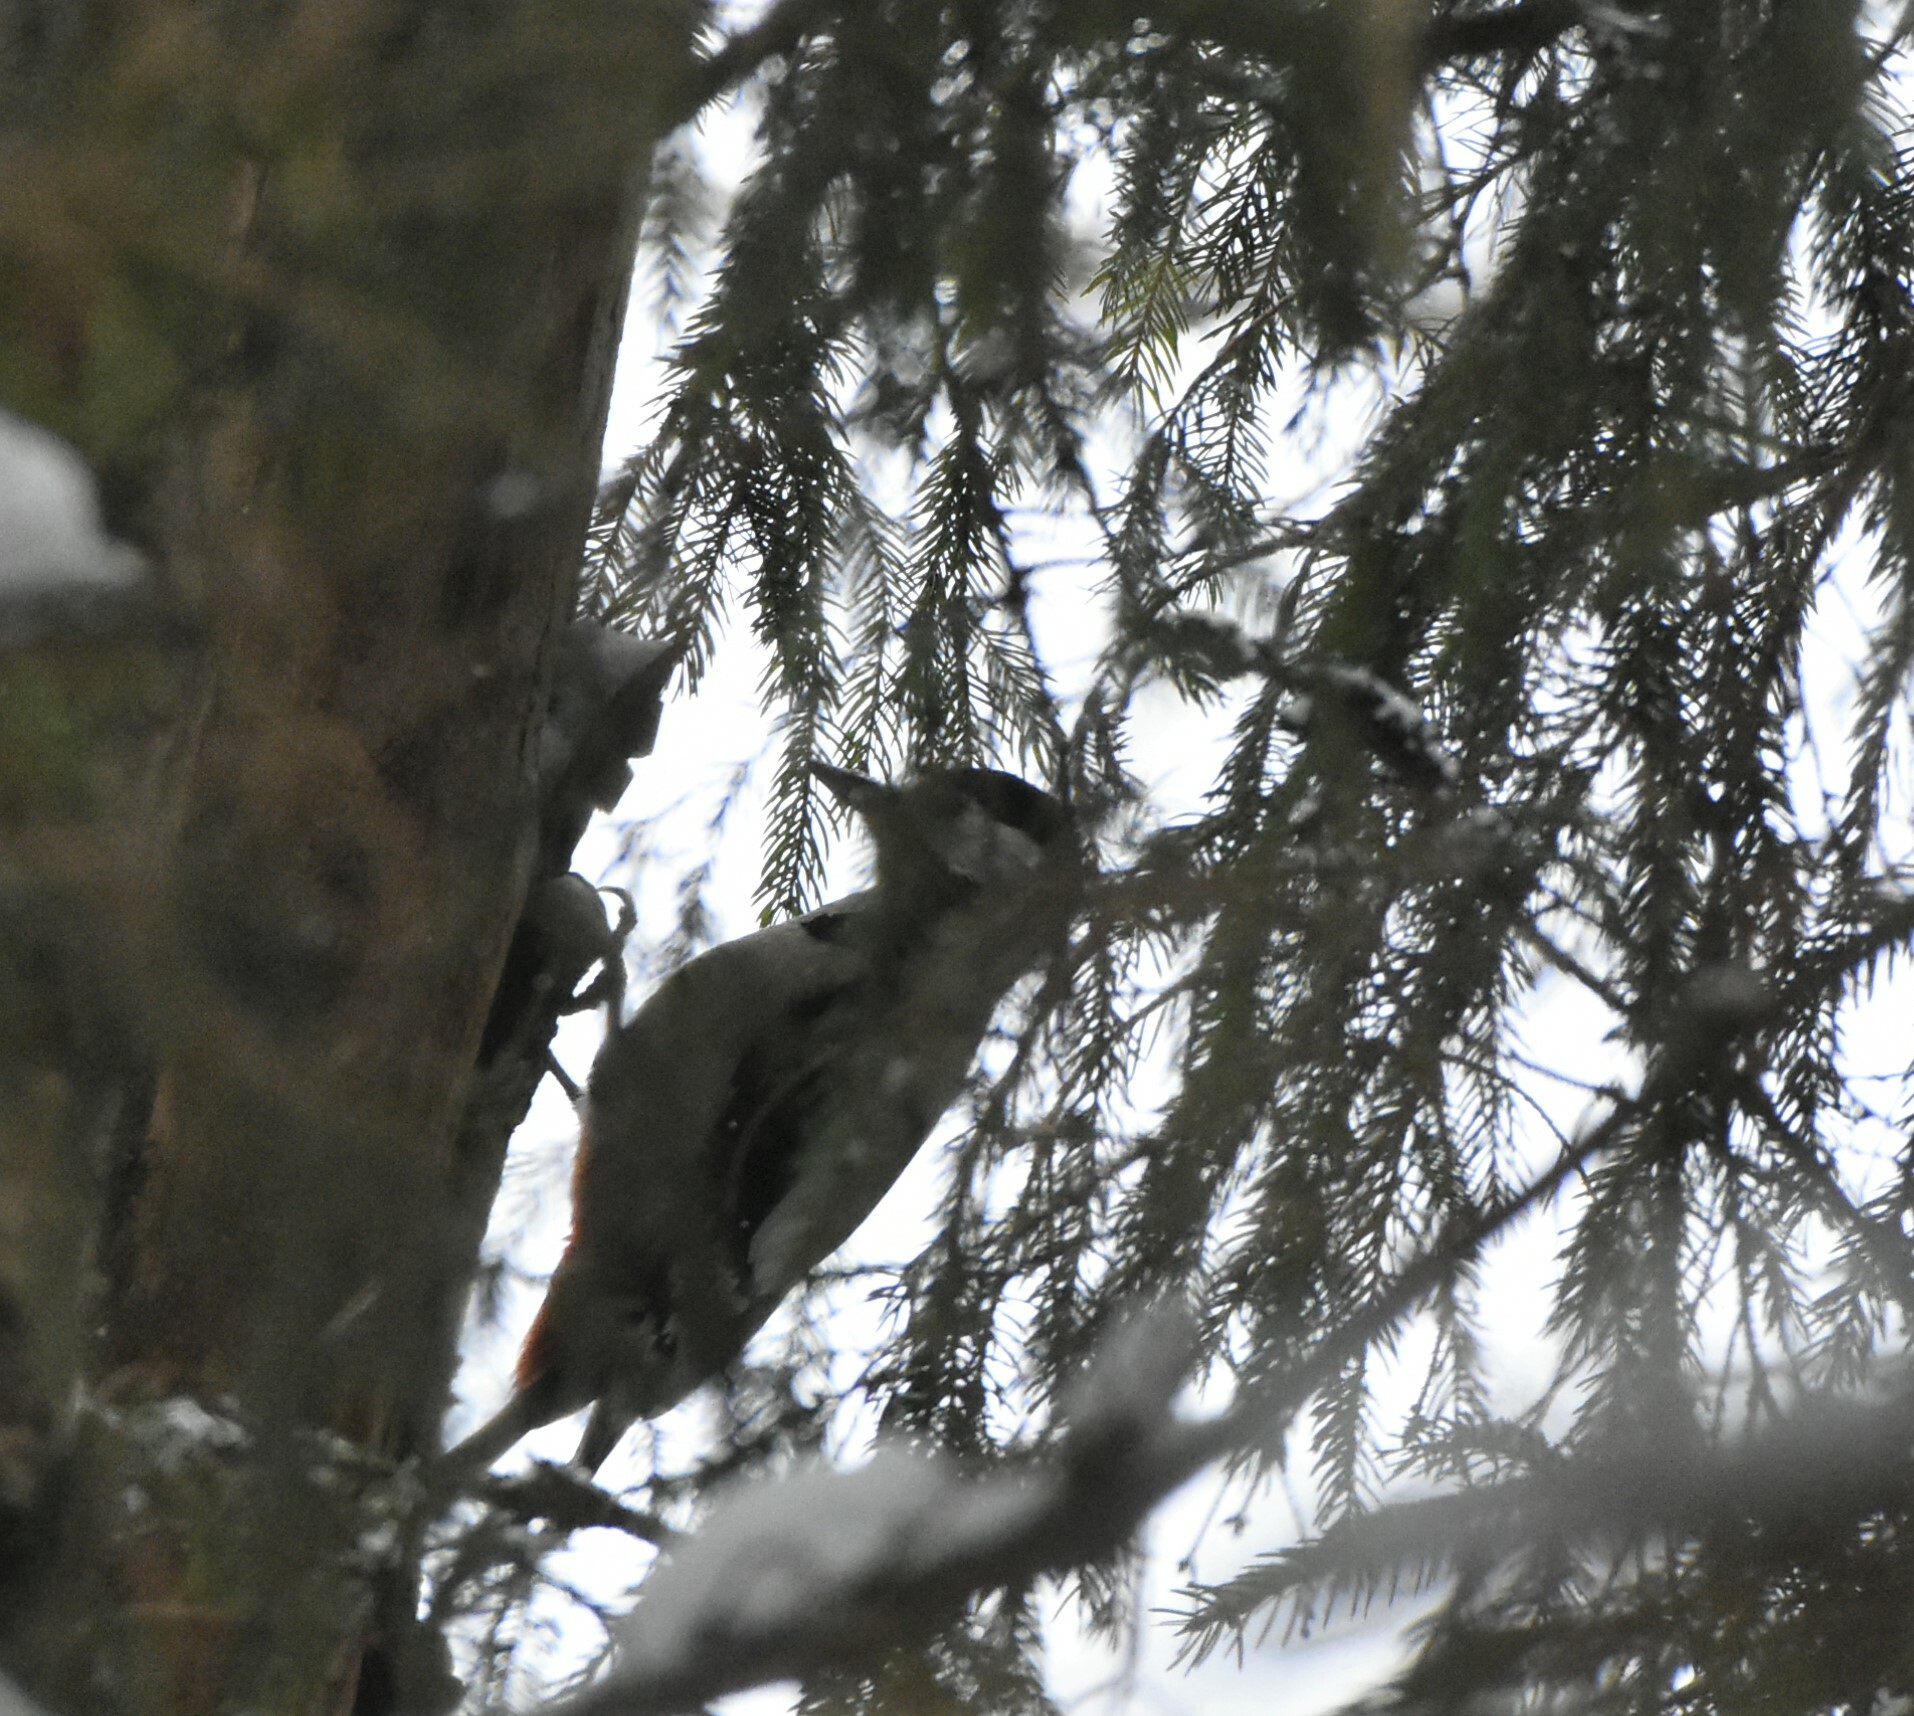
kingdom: Animalia
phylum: Chordata
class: Aves
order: Piciformes
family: Picidae
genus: Dendrocopos
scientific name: Dendrocopos major
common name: Great spotted woodpecker
